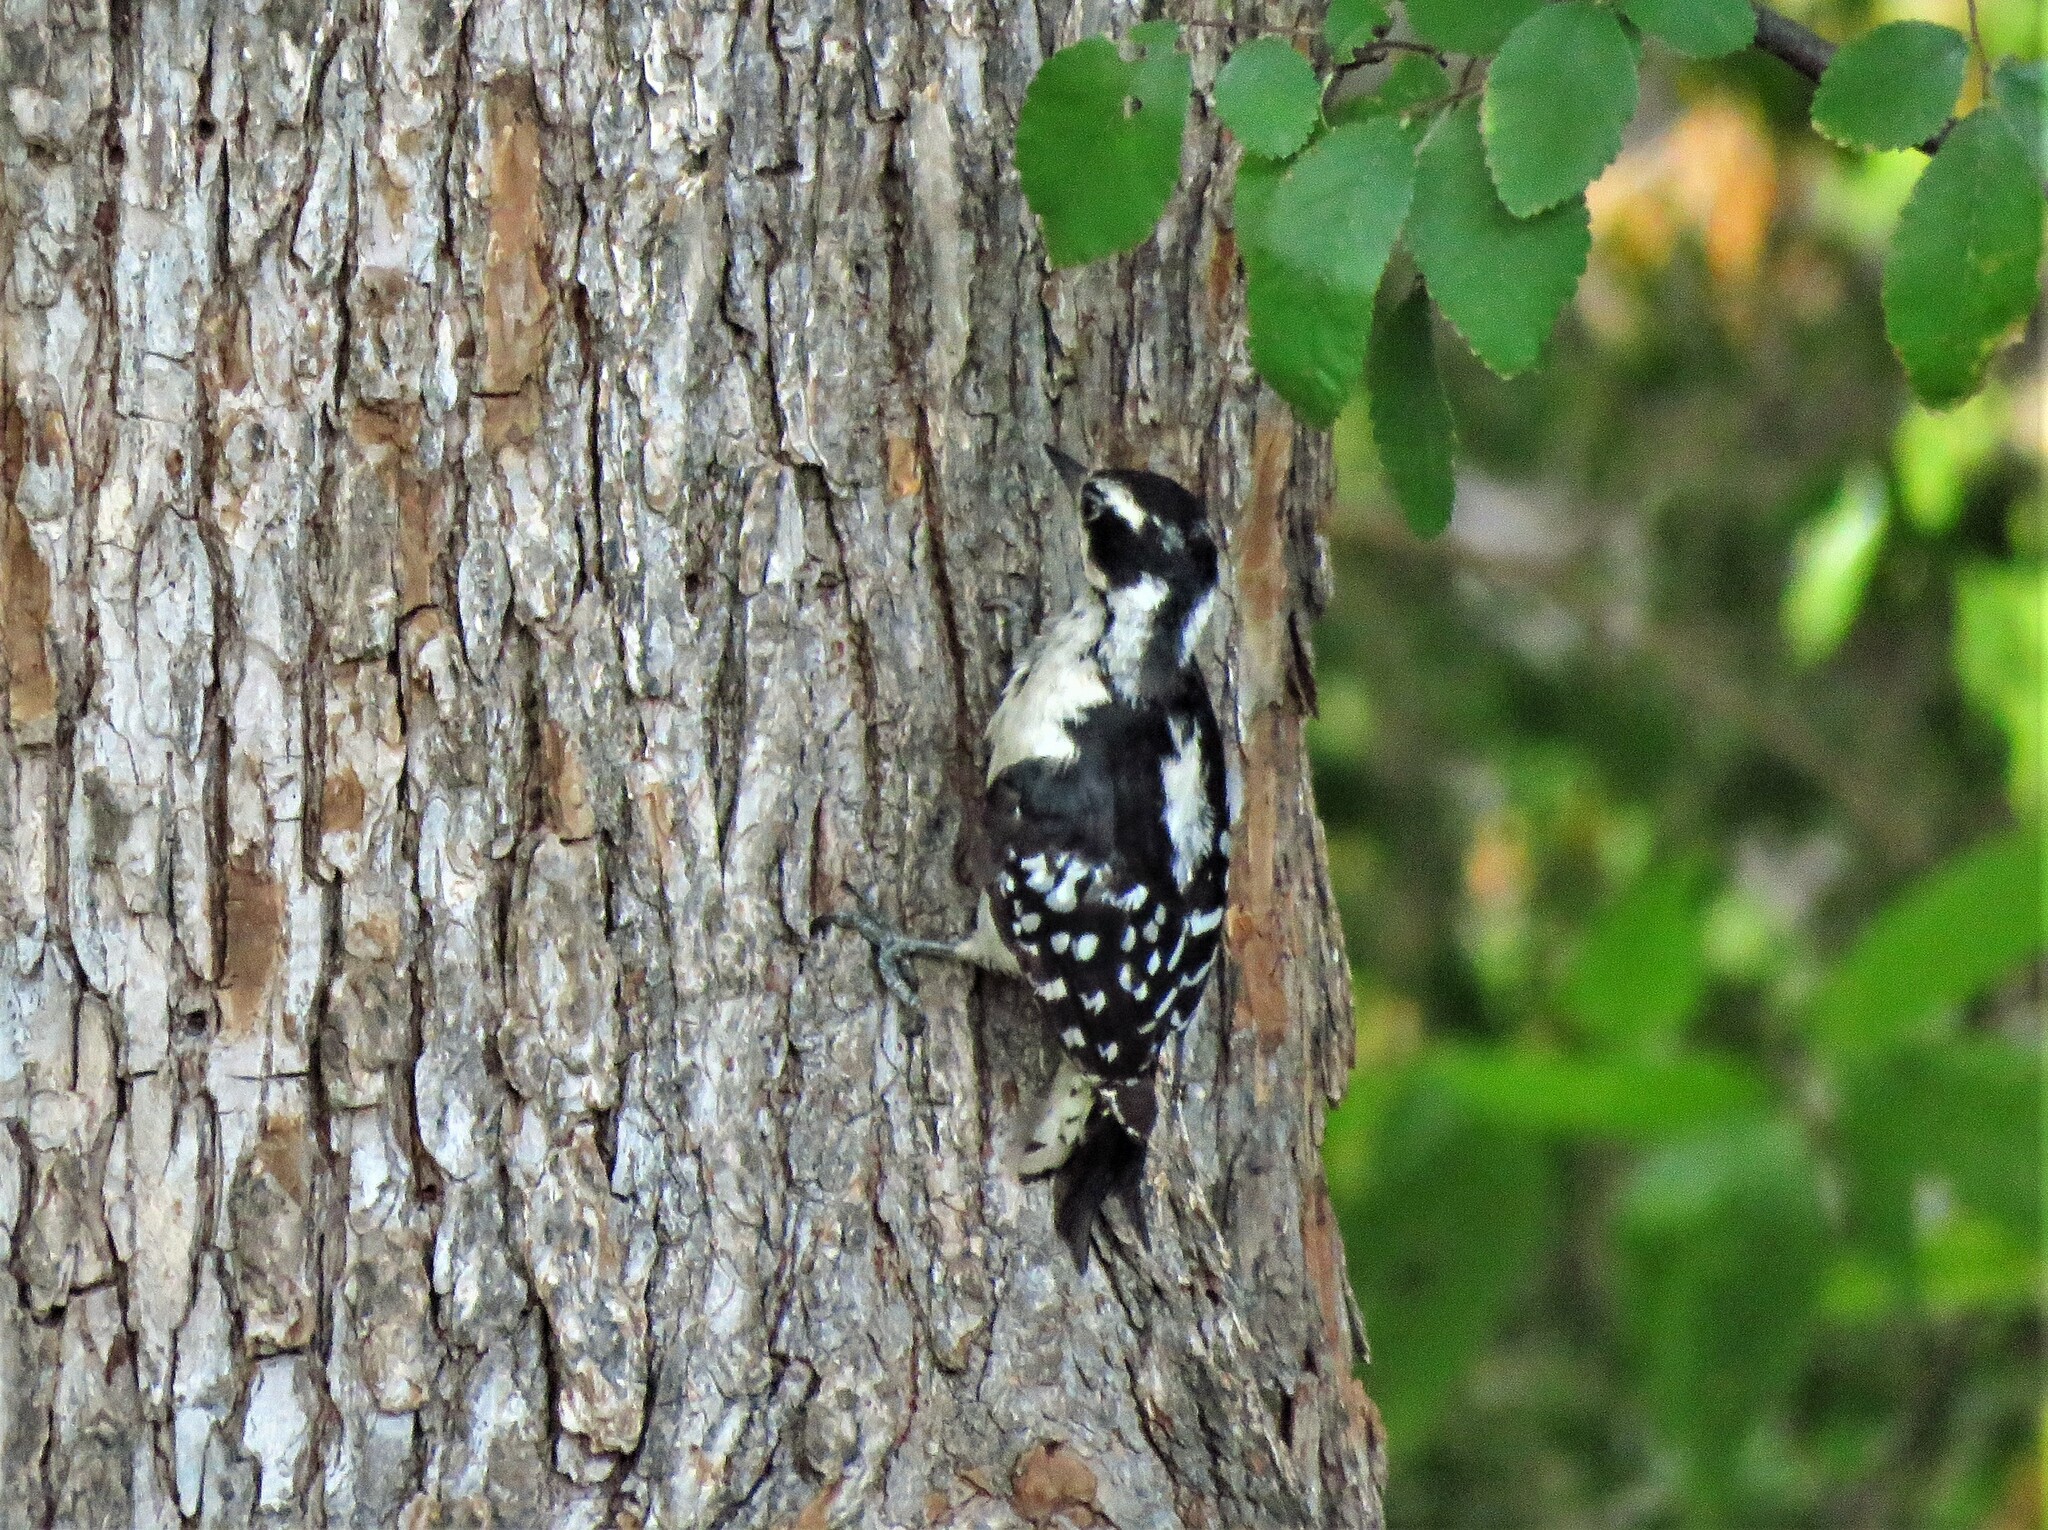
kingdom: Animalia
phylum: Chordata
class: Aves
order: Piciformes
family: Picidae
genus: Dryobates
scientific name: Dryobates pubescens
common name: Downy woodpecker
